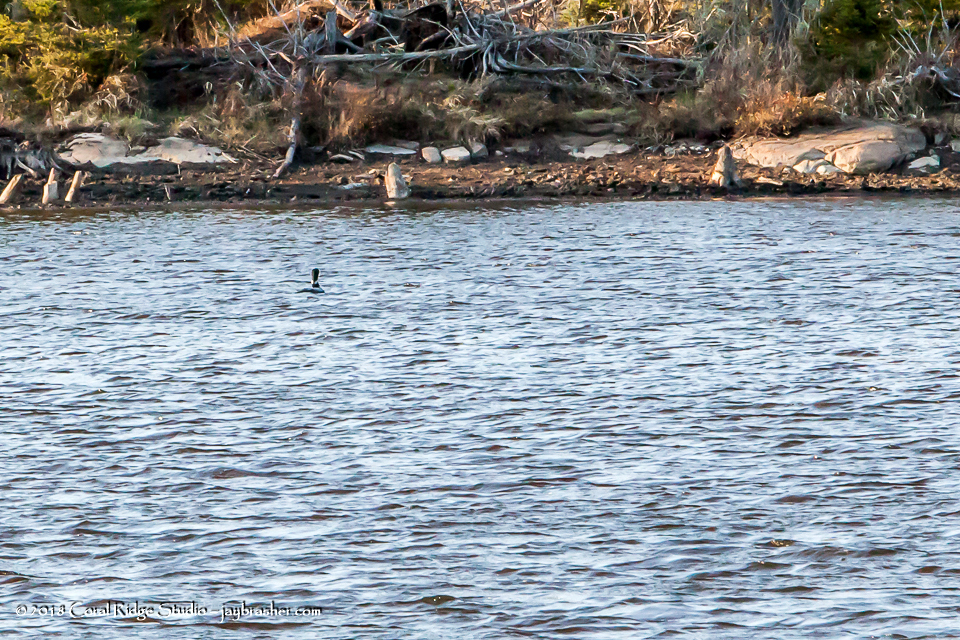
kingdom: Animalia
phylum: Chordata
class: Mammalia
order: Artiodactyla
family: Cervidae
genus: Alces
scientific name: Alces alces
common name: Moose
